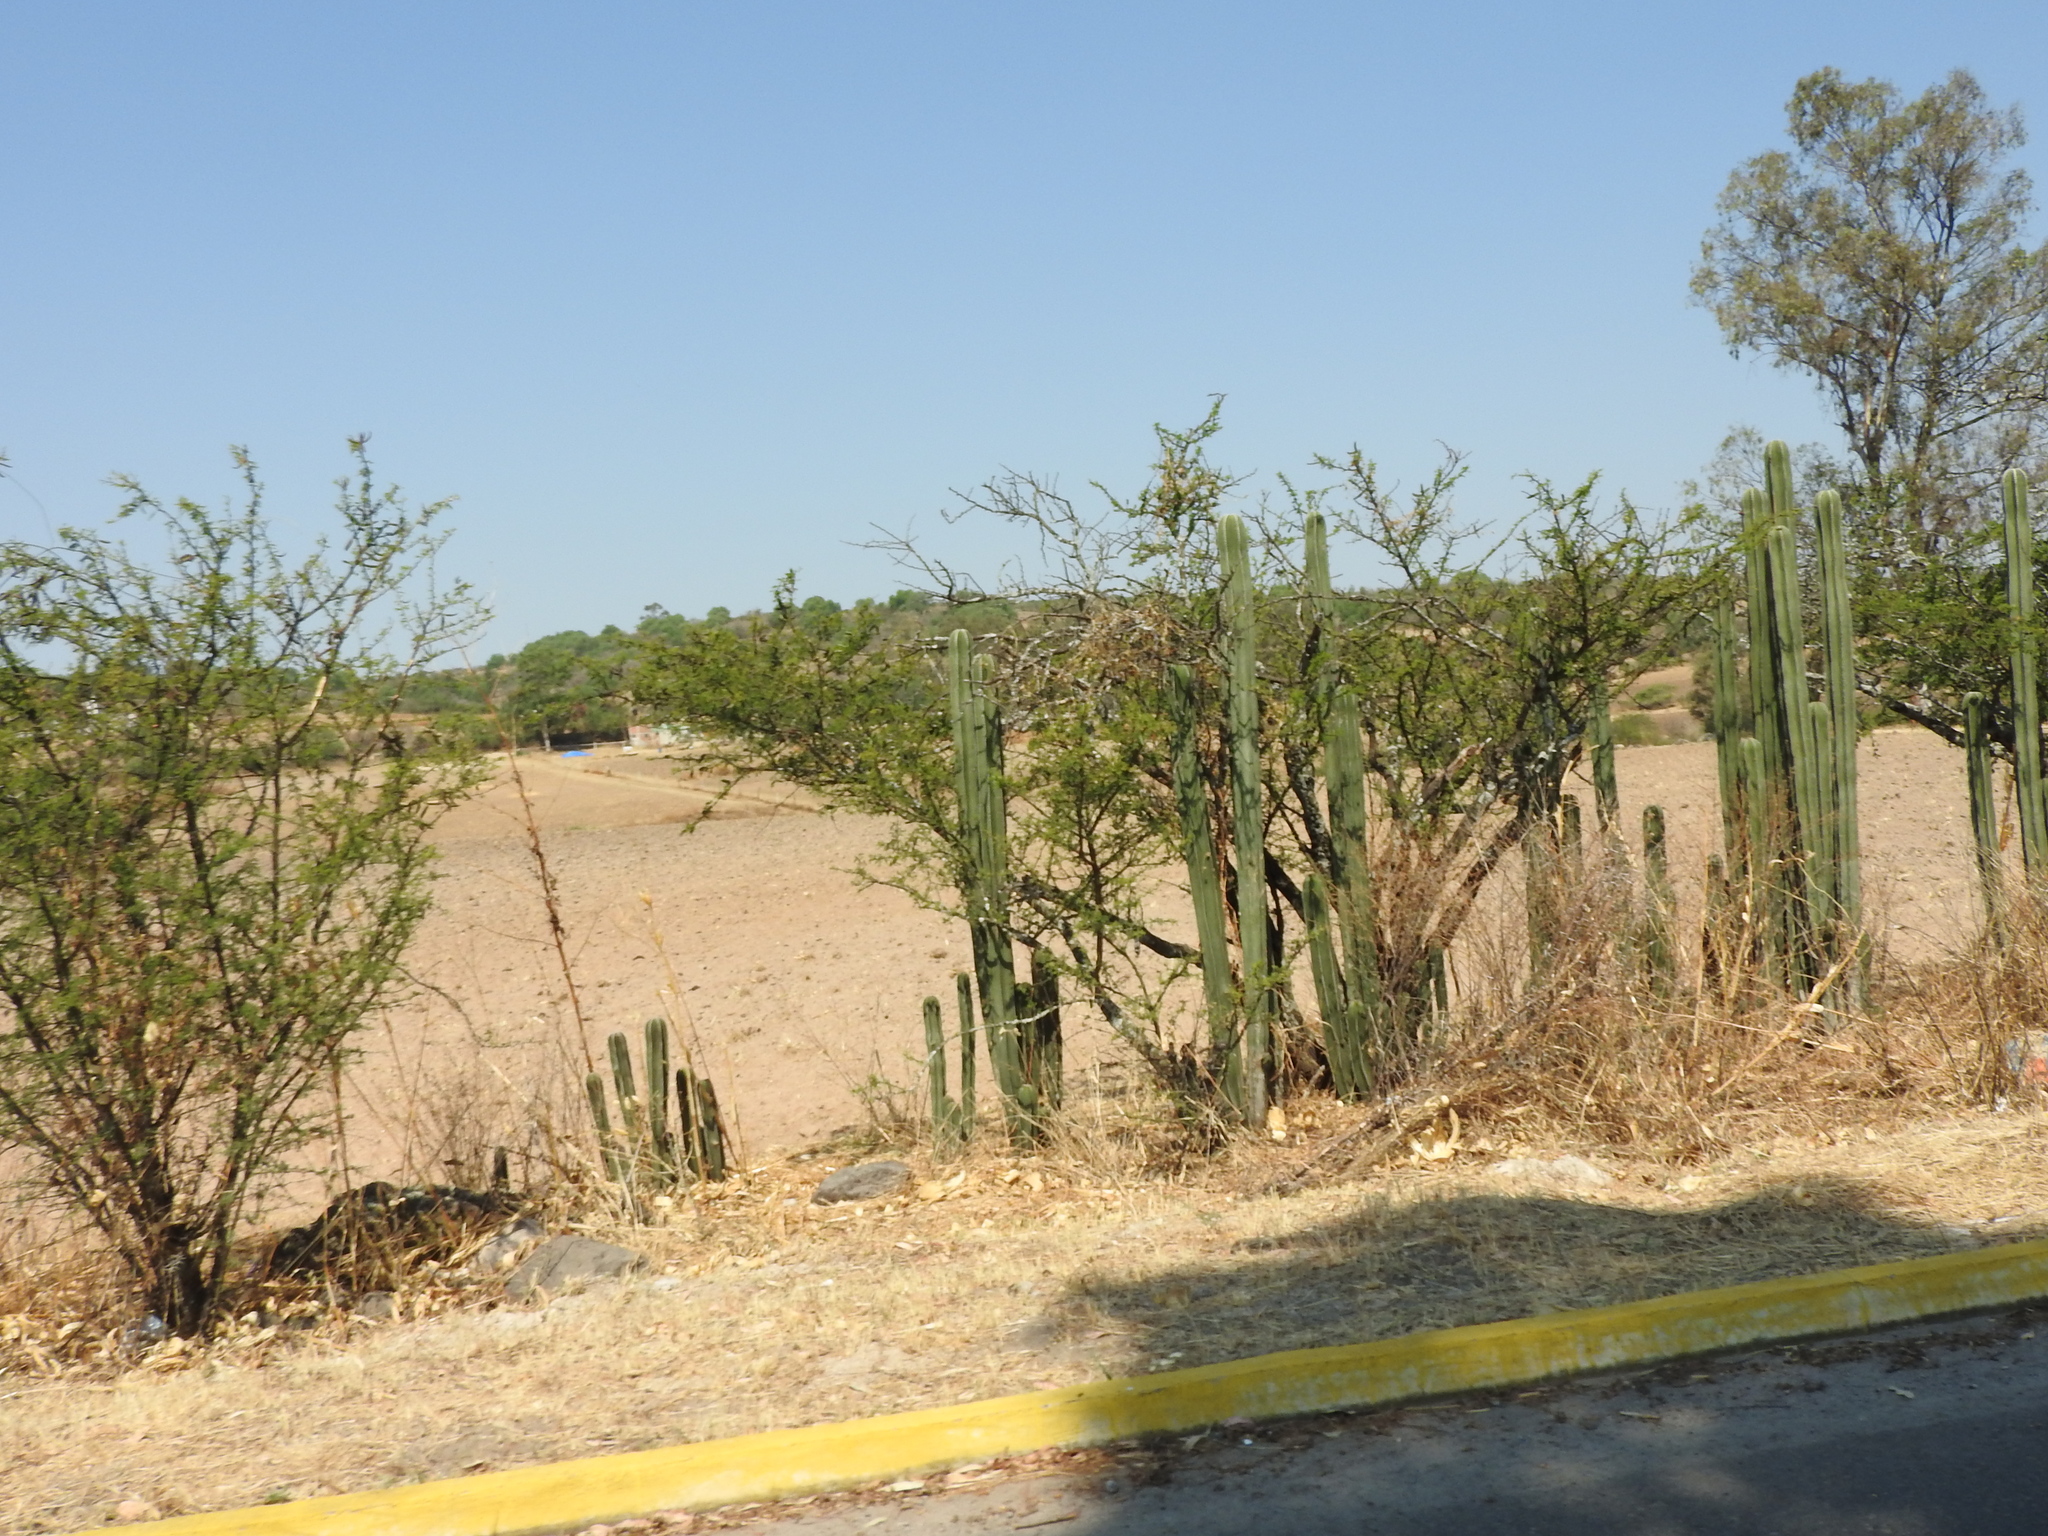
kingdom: Plantae
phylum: Tracheophyta
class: Magnoliopsida
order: Fabales
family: Fabaceae
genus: Vachellia
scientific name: Vachellia farnesiana
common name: Sweet acacia
